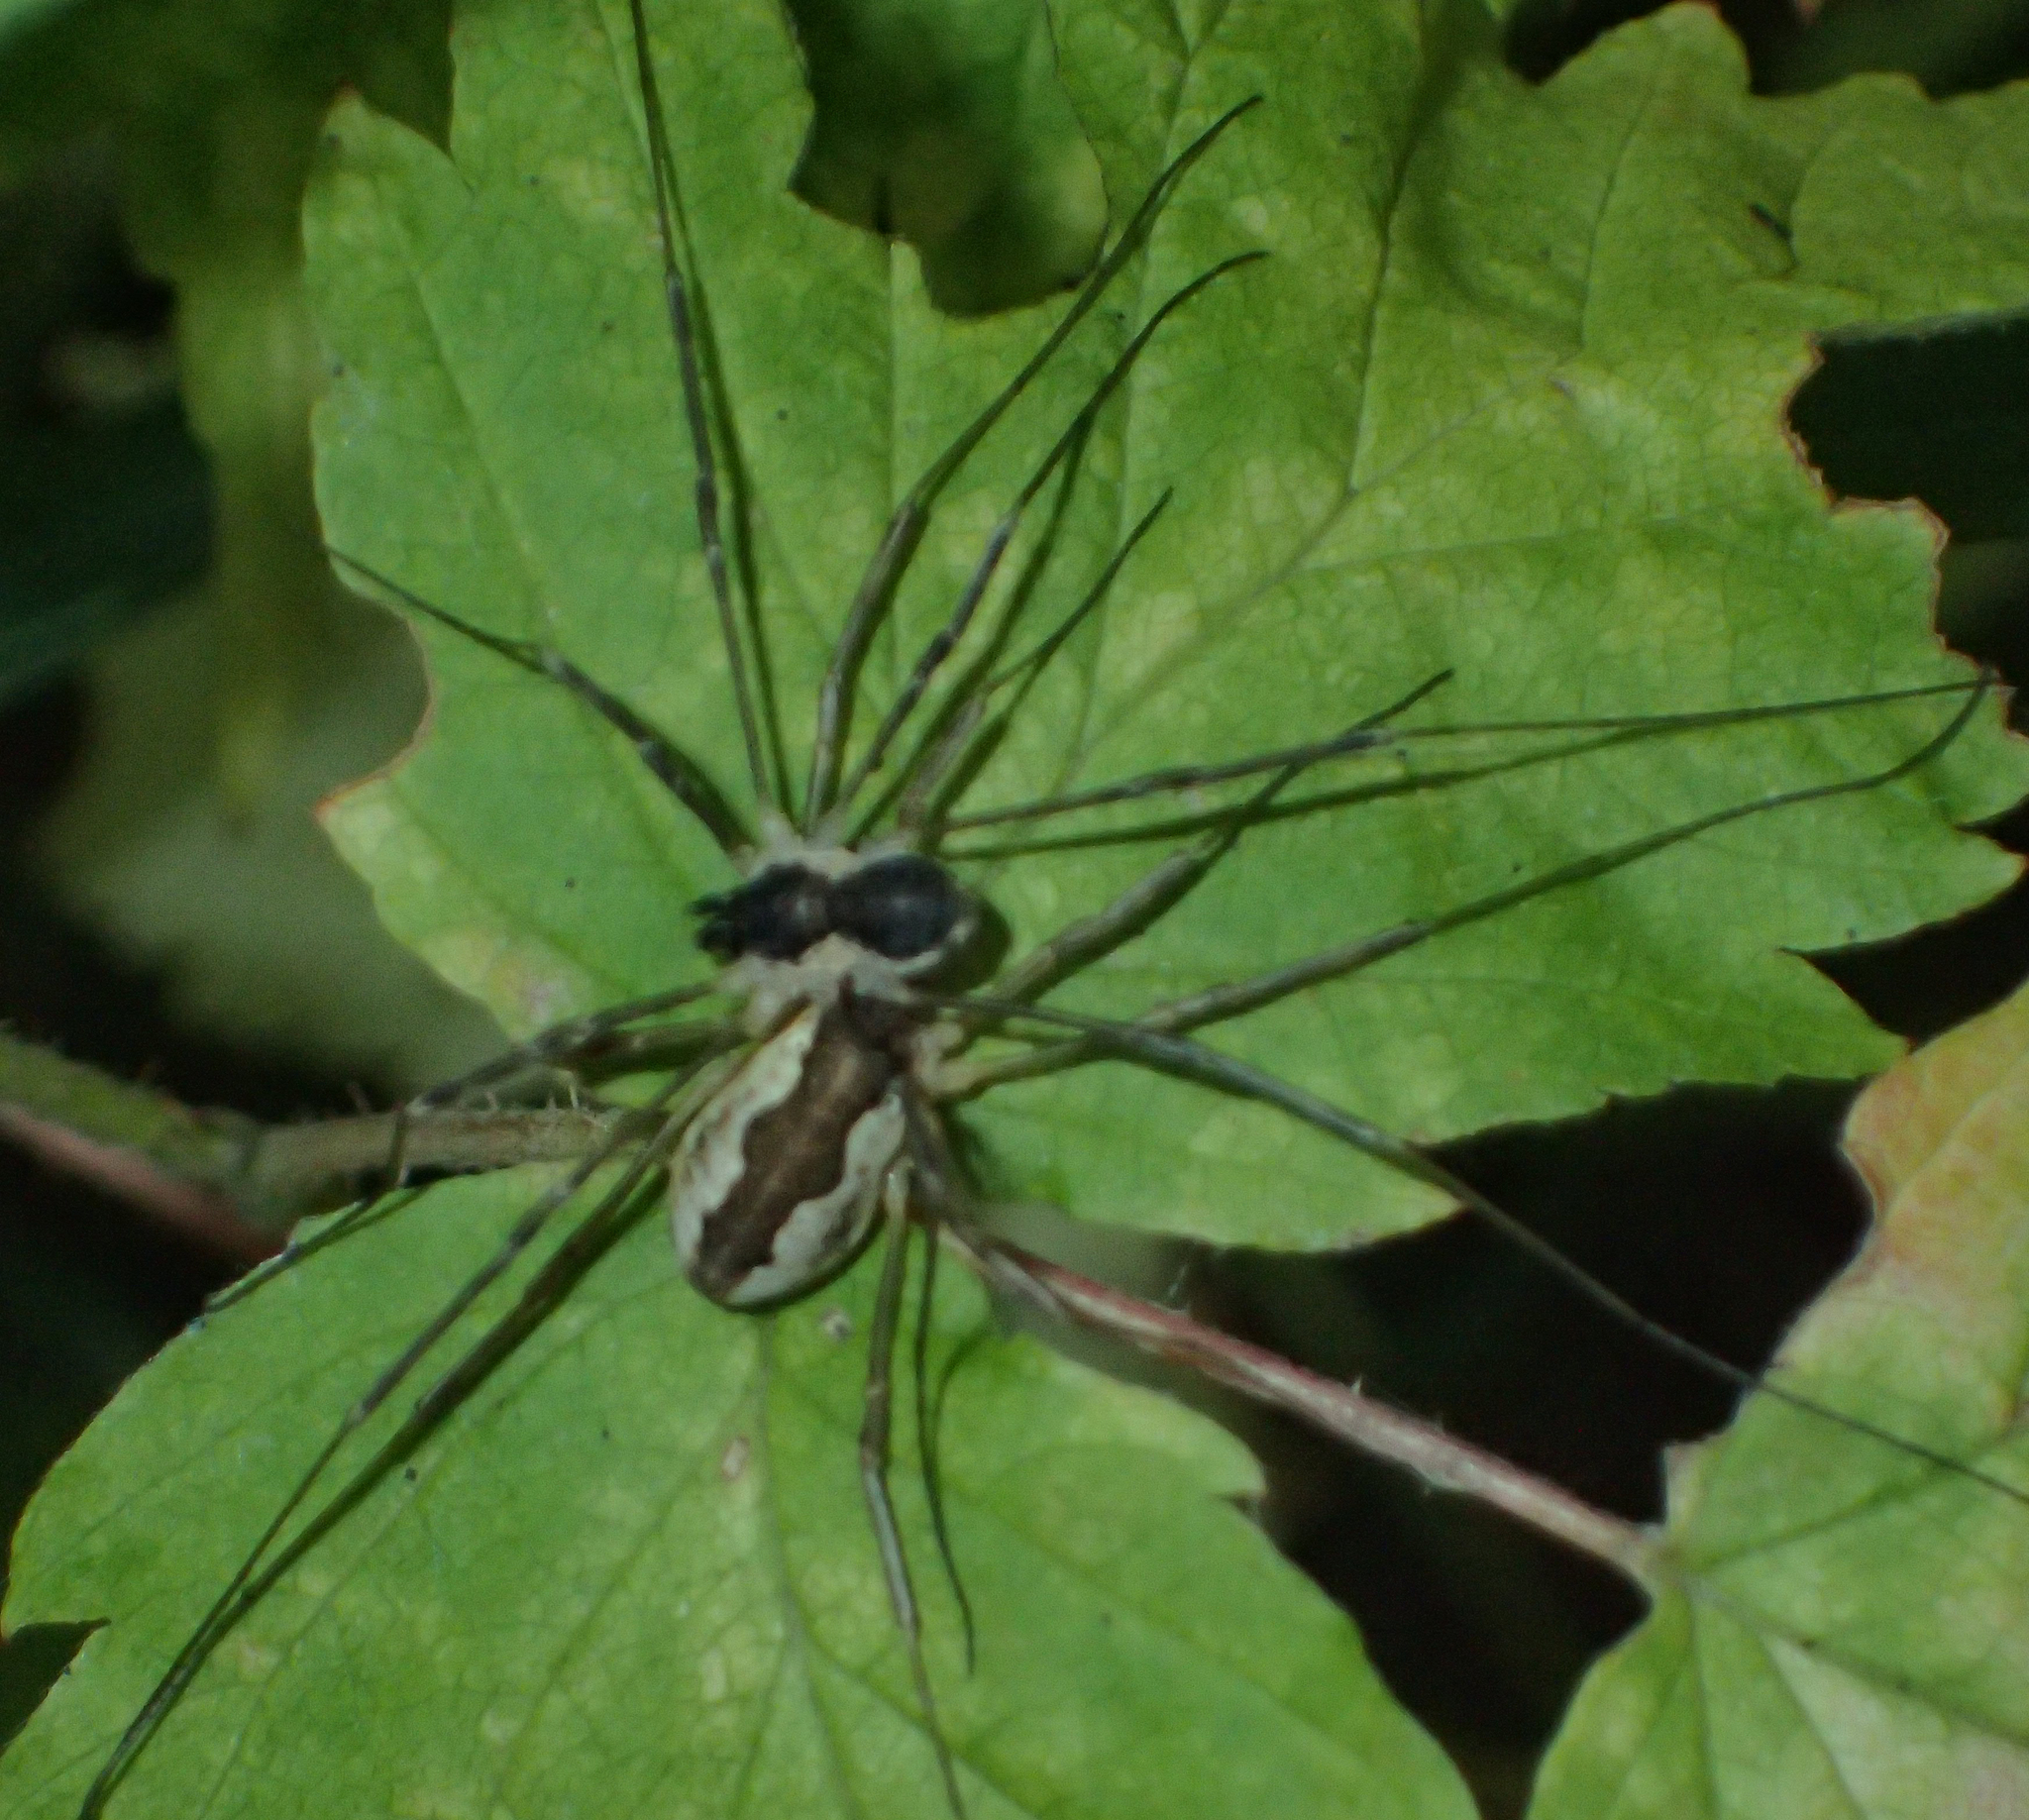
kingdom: Animalia
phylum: Arthropoda
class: Arachnida
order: Opiliones
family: Phalangiidae
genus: Mitopus
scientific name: Mitopus morio
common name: Saddleback harvestman
